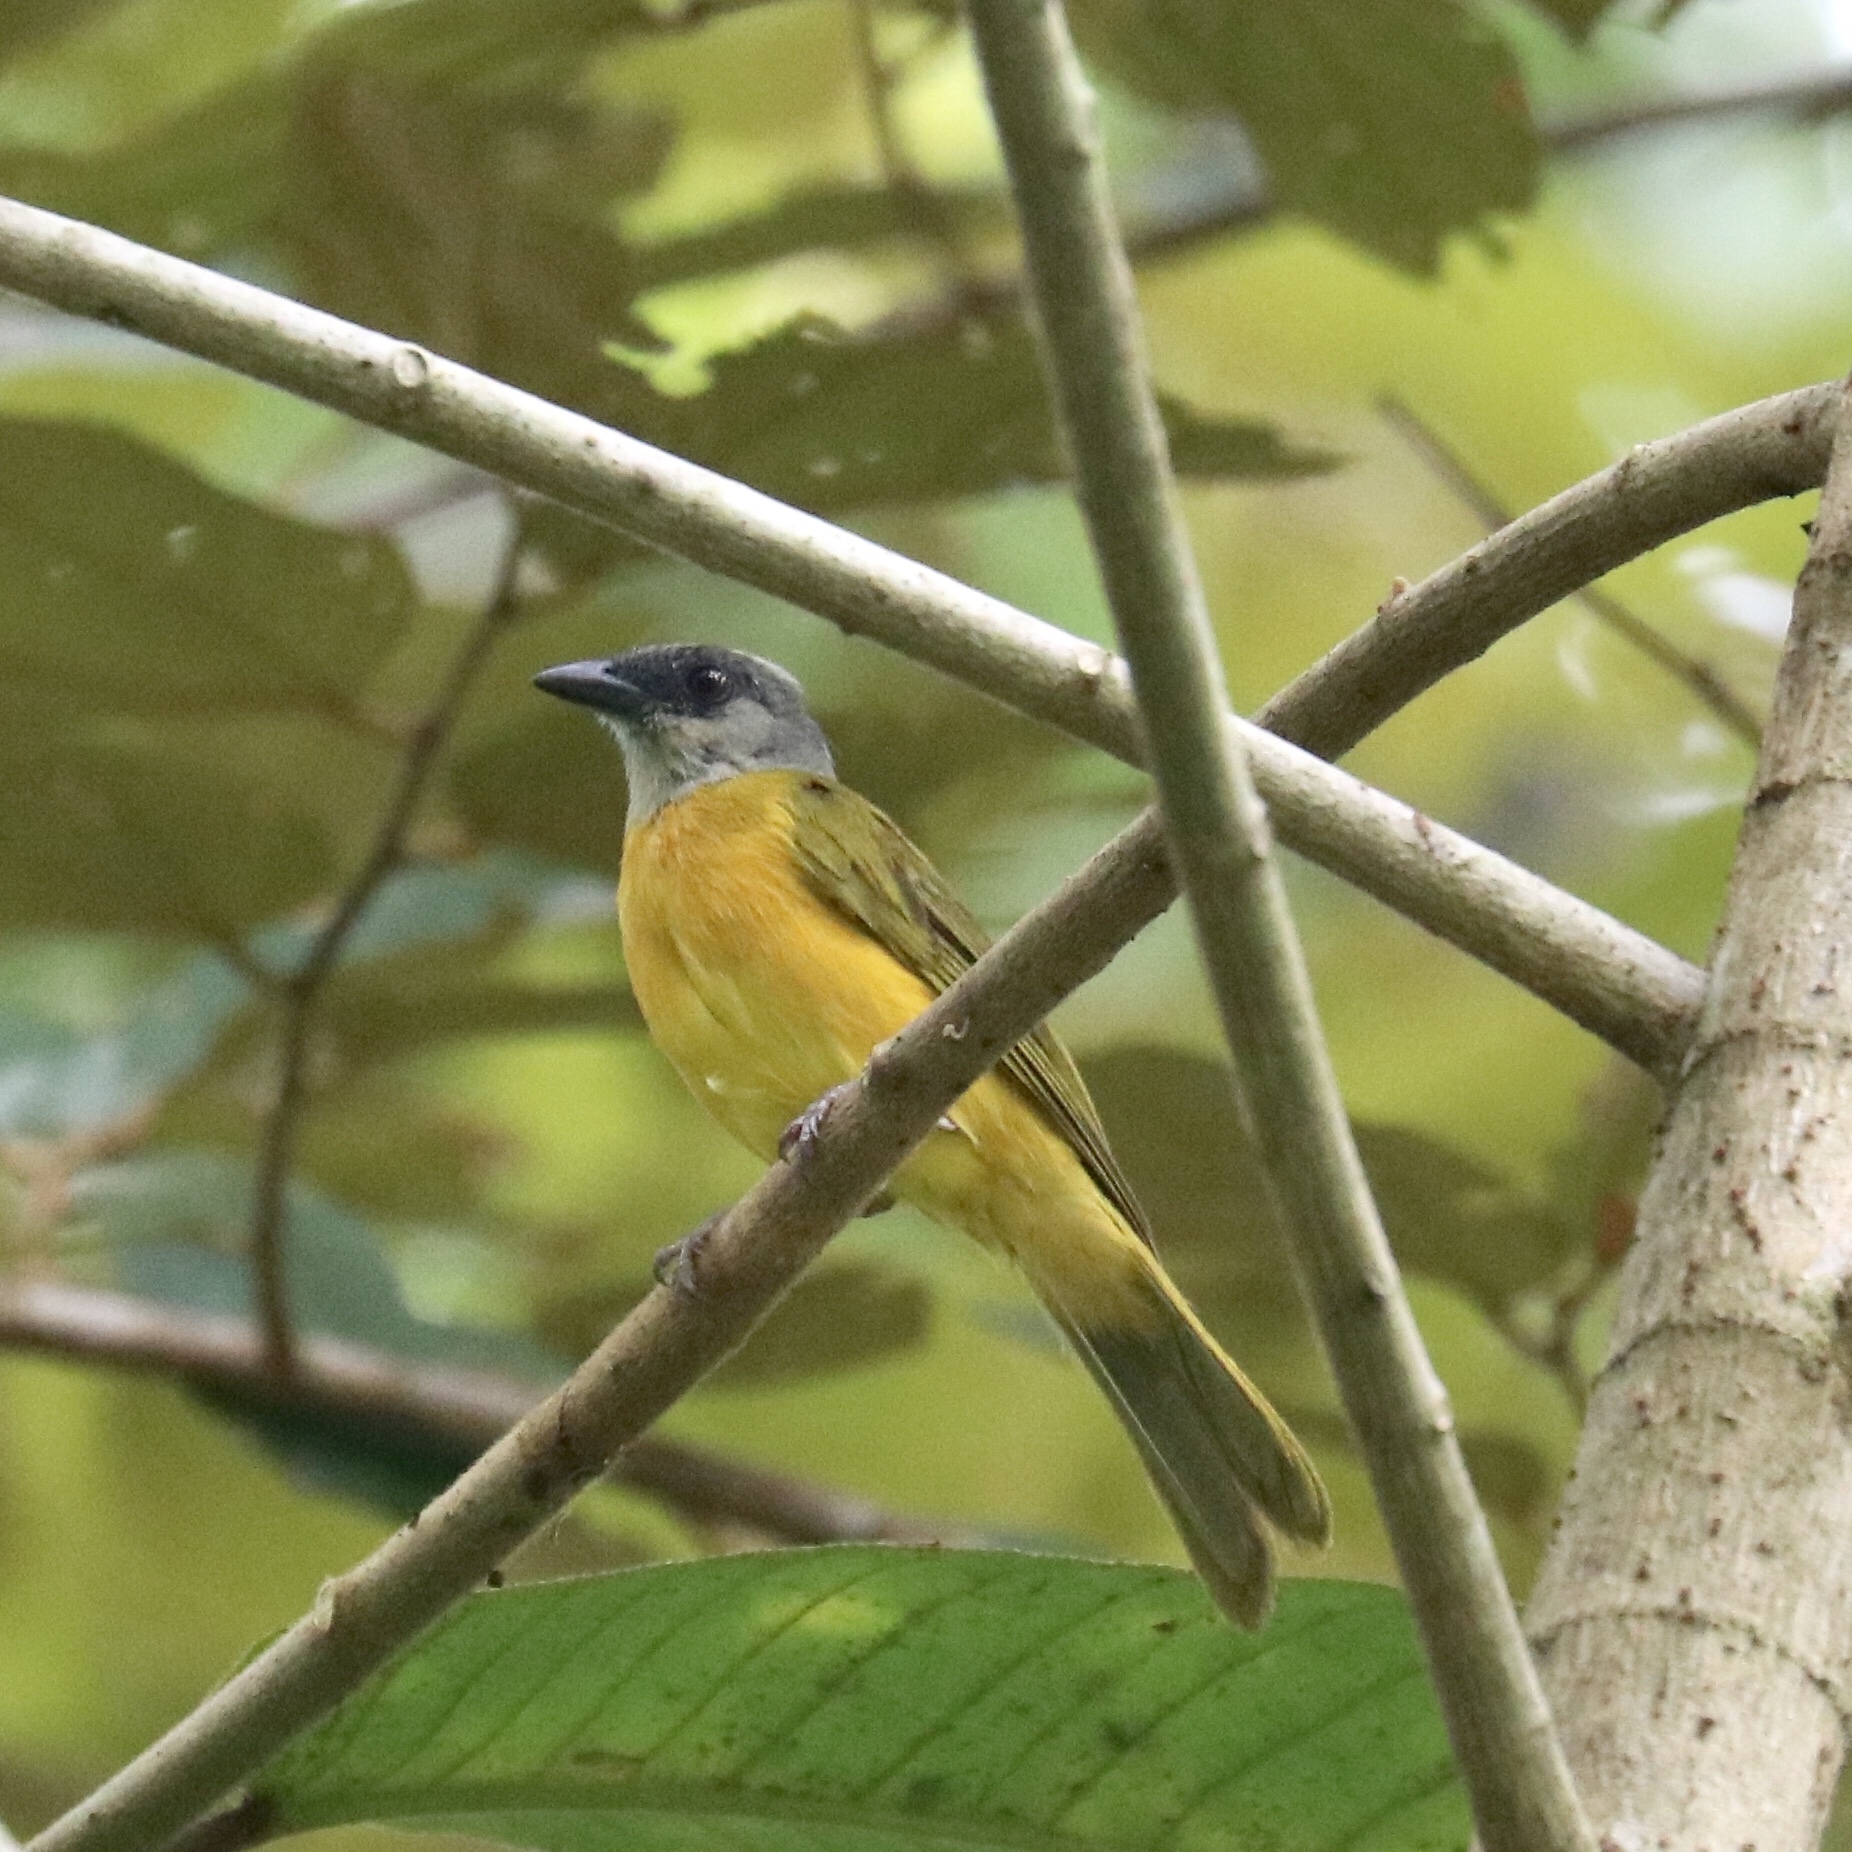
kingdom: Animalia
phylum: Chordata
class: Aves
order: Passeriformes
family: Thraupidae
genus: Eucometis
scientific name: Eucometis penicillata
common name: Grey-headed tanager
